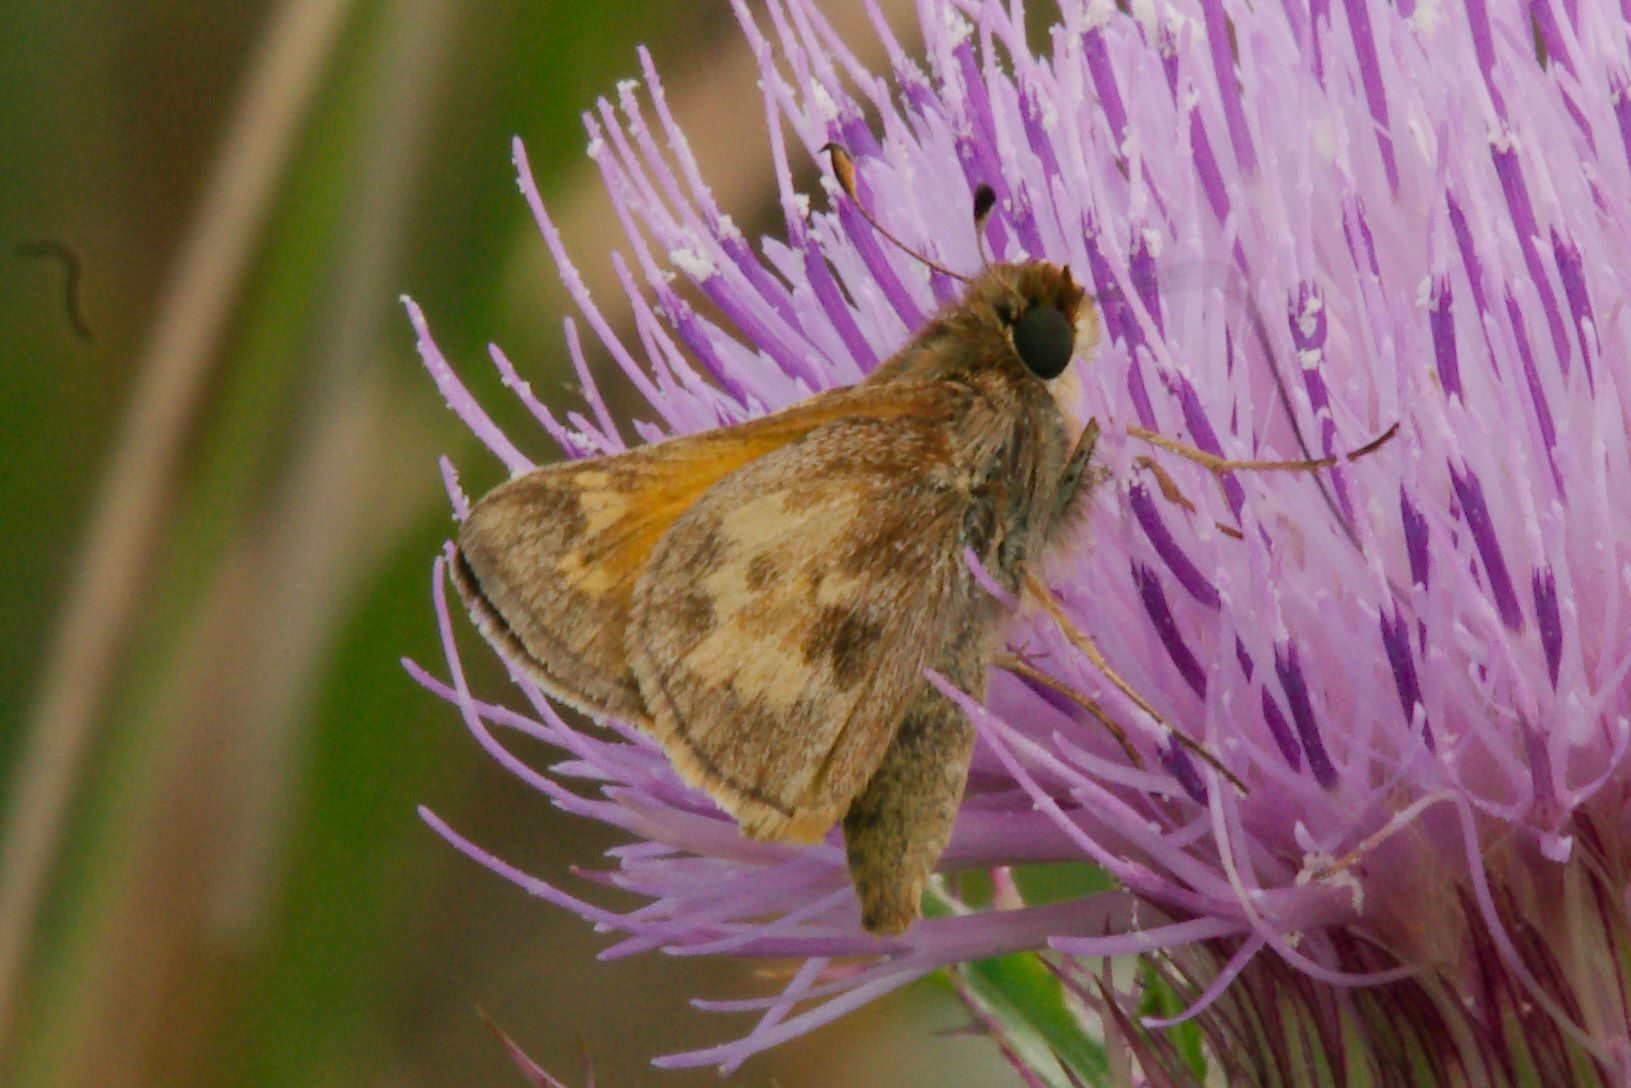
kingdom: Animalia
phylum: Arthropoda
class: Insecta
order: Lepidoptera
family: Hesperiidae
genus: Atalopedes
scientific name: Atalopedes
